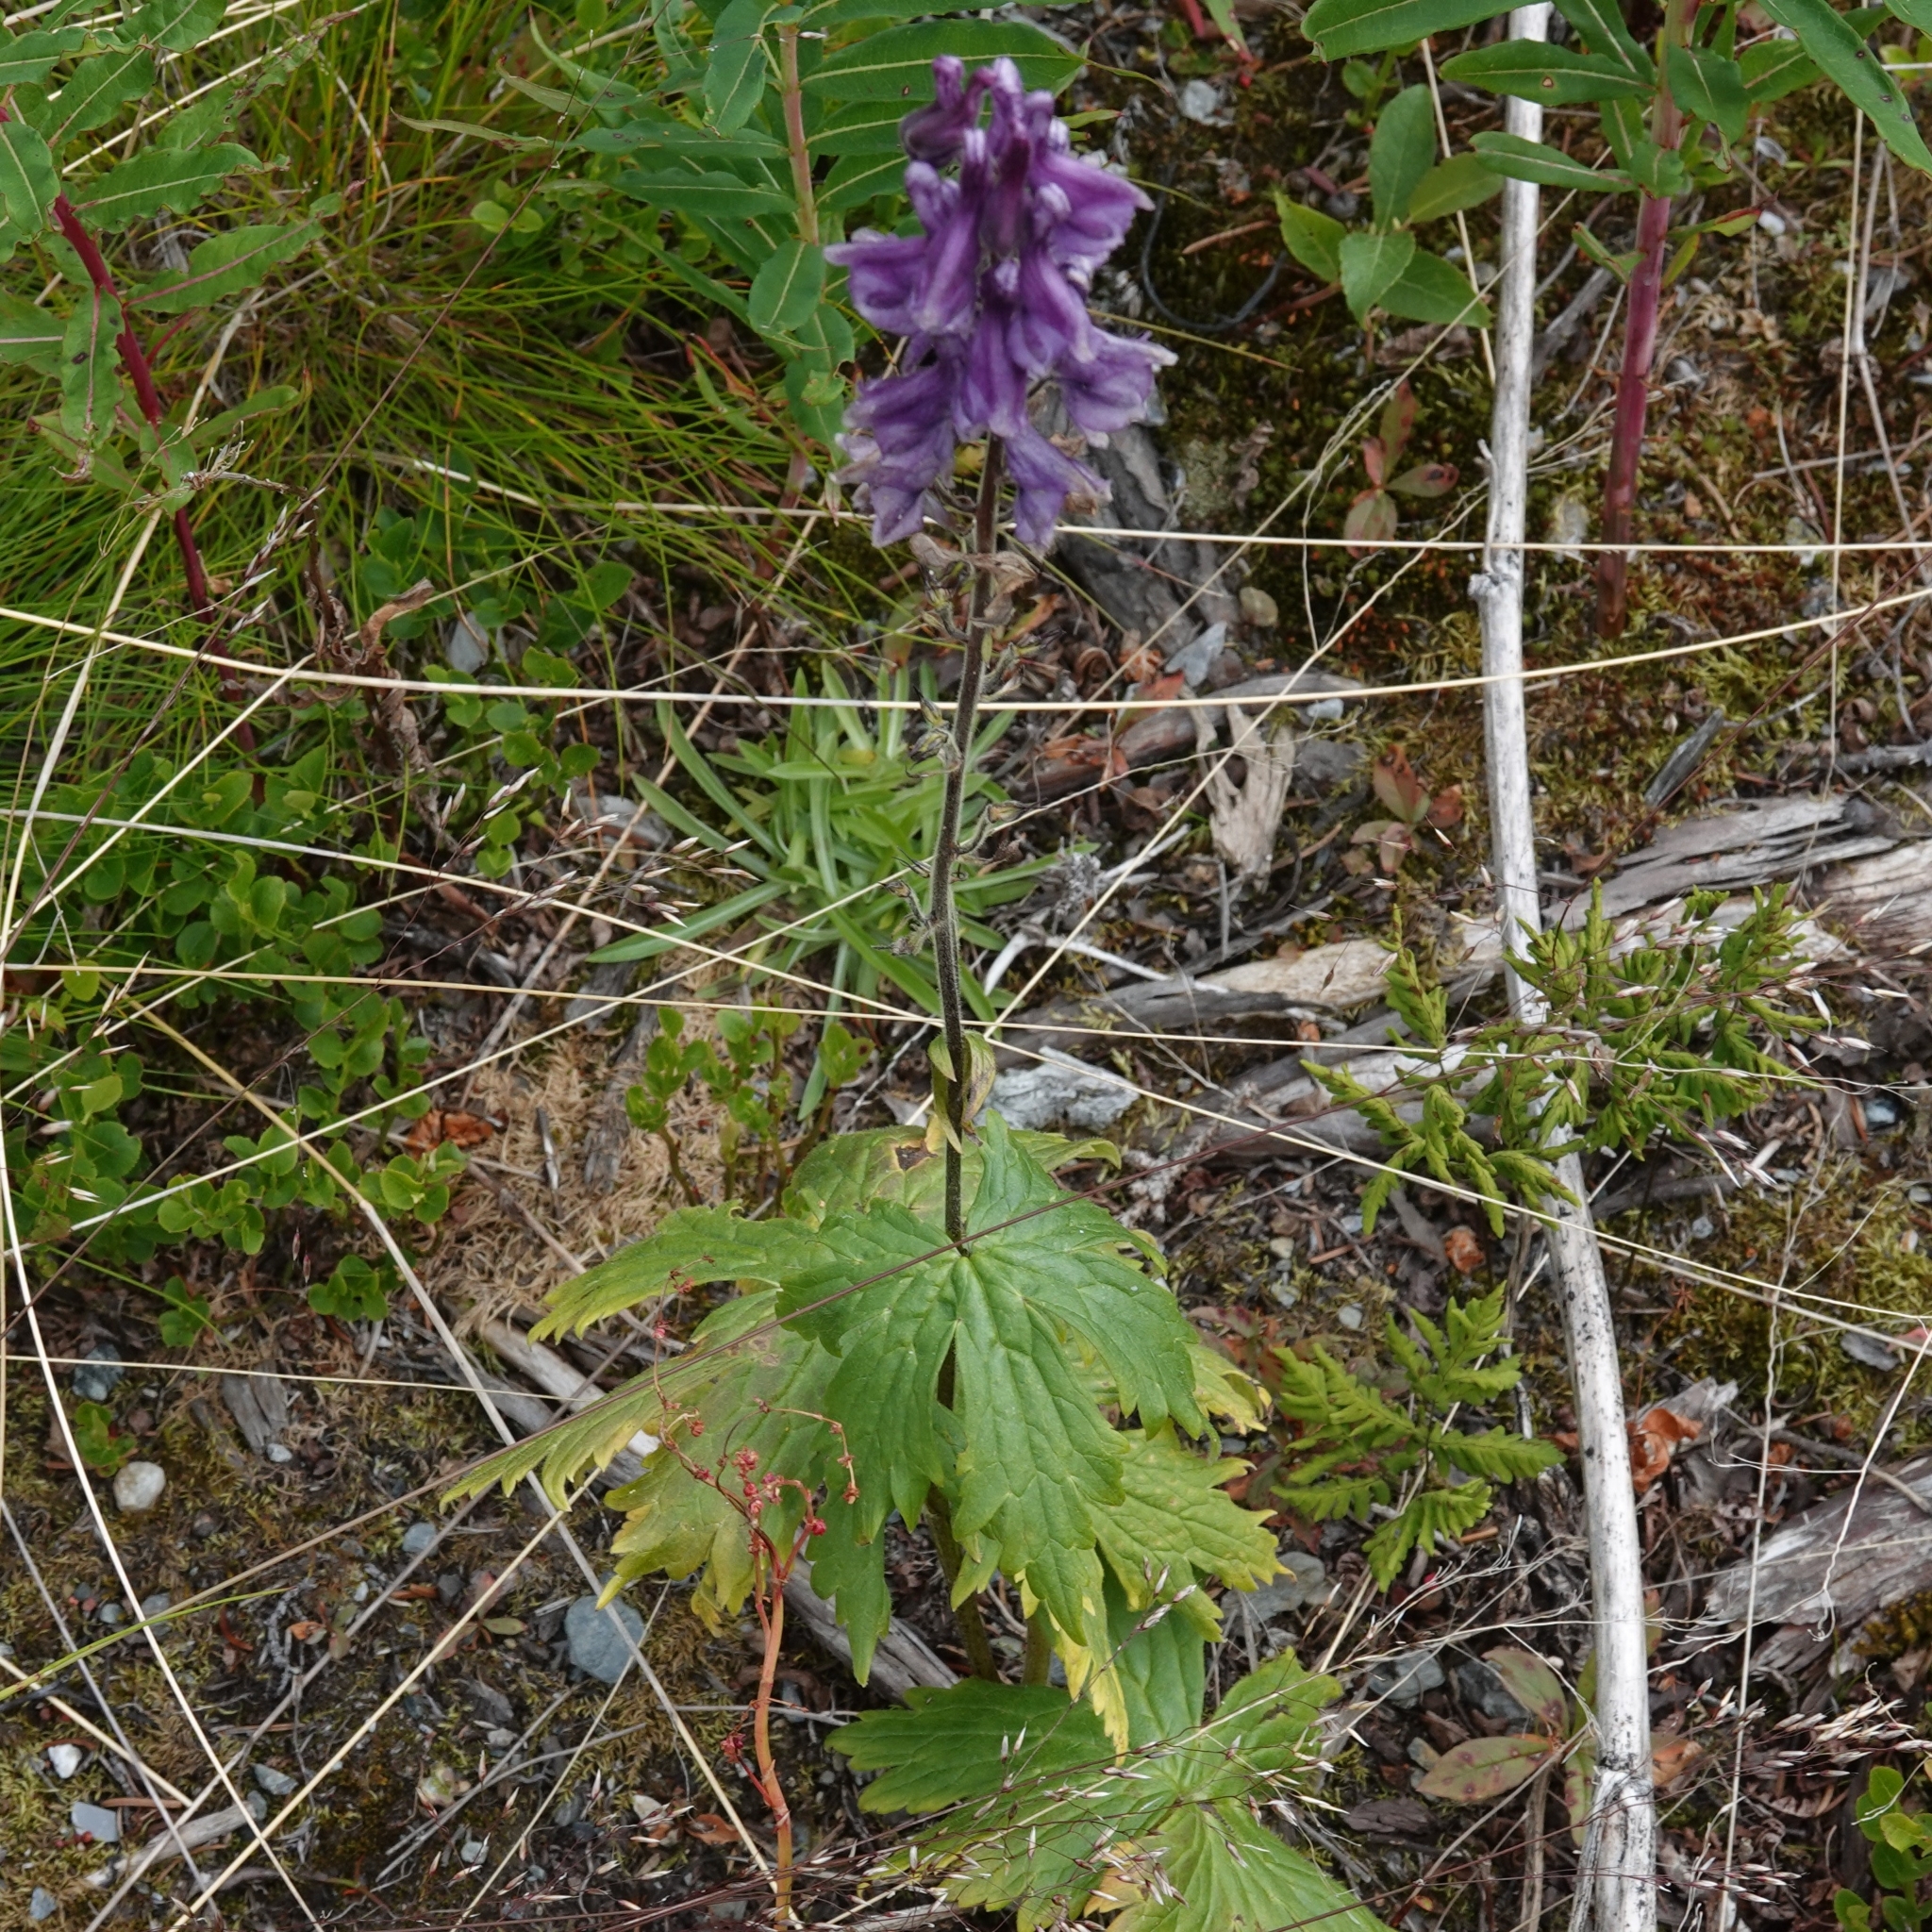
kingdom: Plantae
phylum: Tracheophyta
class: Magnoliopsida
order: Ranunculales
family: Ranunculaceae
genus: Aconitum
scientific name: Aconitum septentrionale
